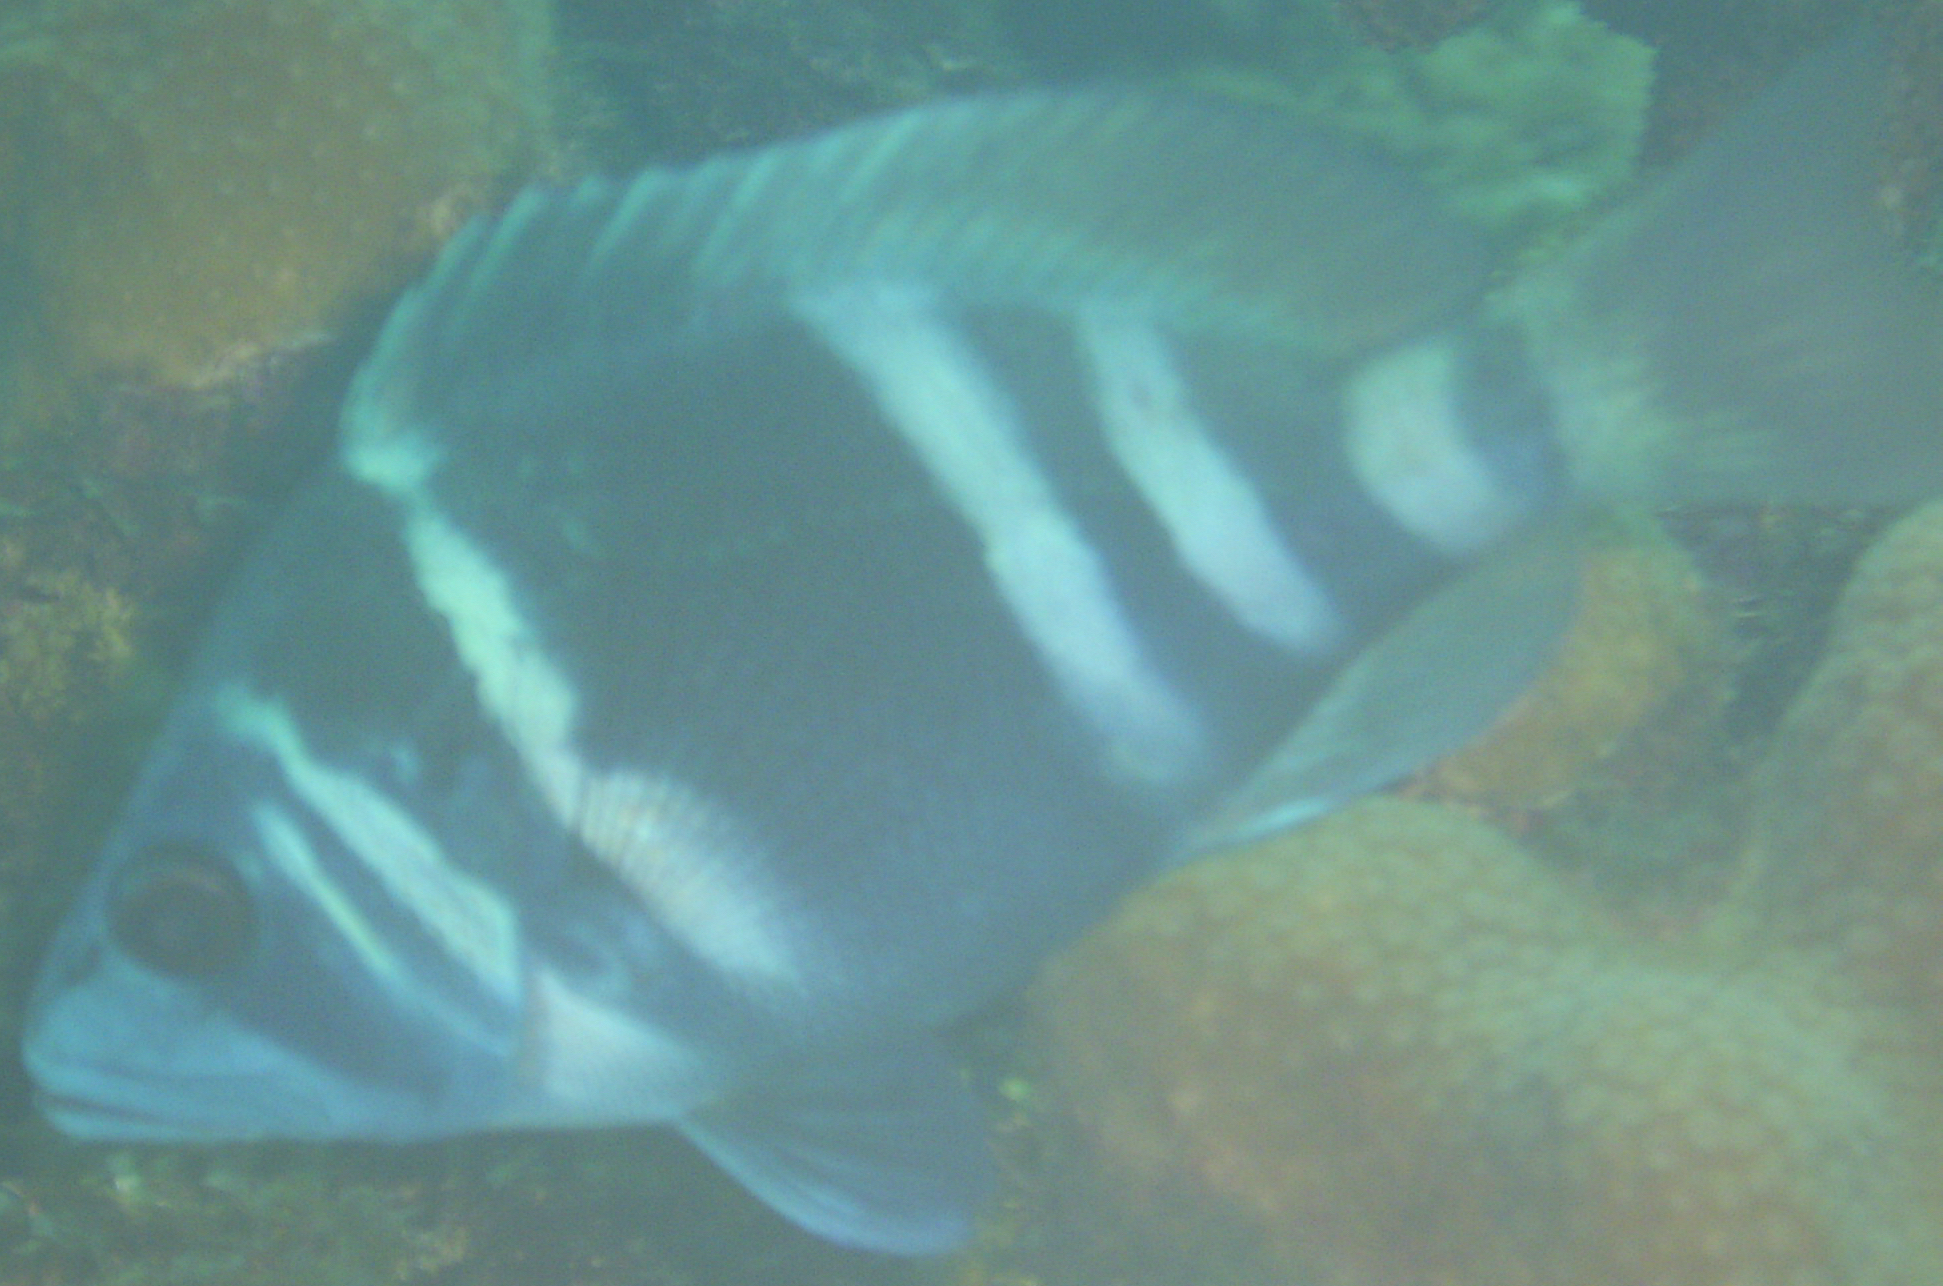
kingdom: Animalia
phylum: Chordata
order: Perciformes
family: Serranidae
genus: Hypoplectrus
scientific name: Hypoplectrus indigo
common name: Indigo hamlet
